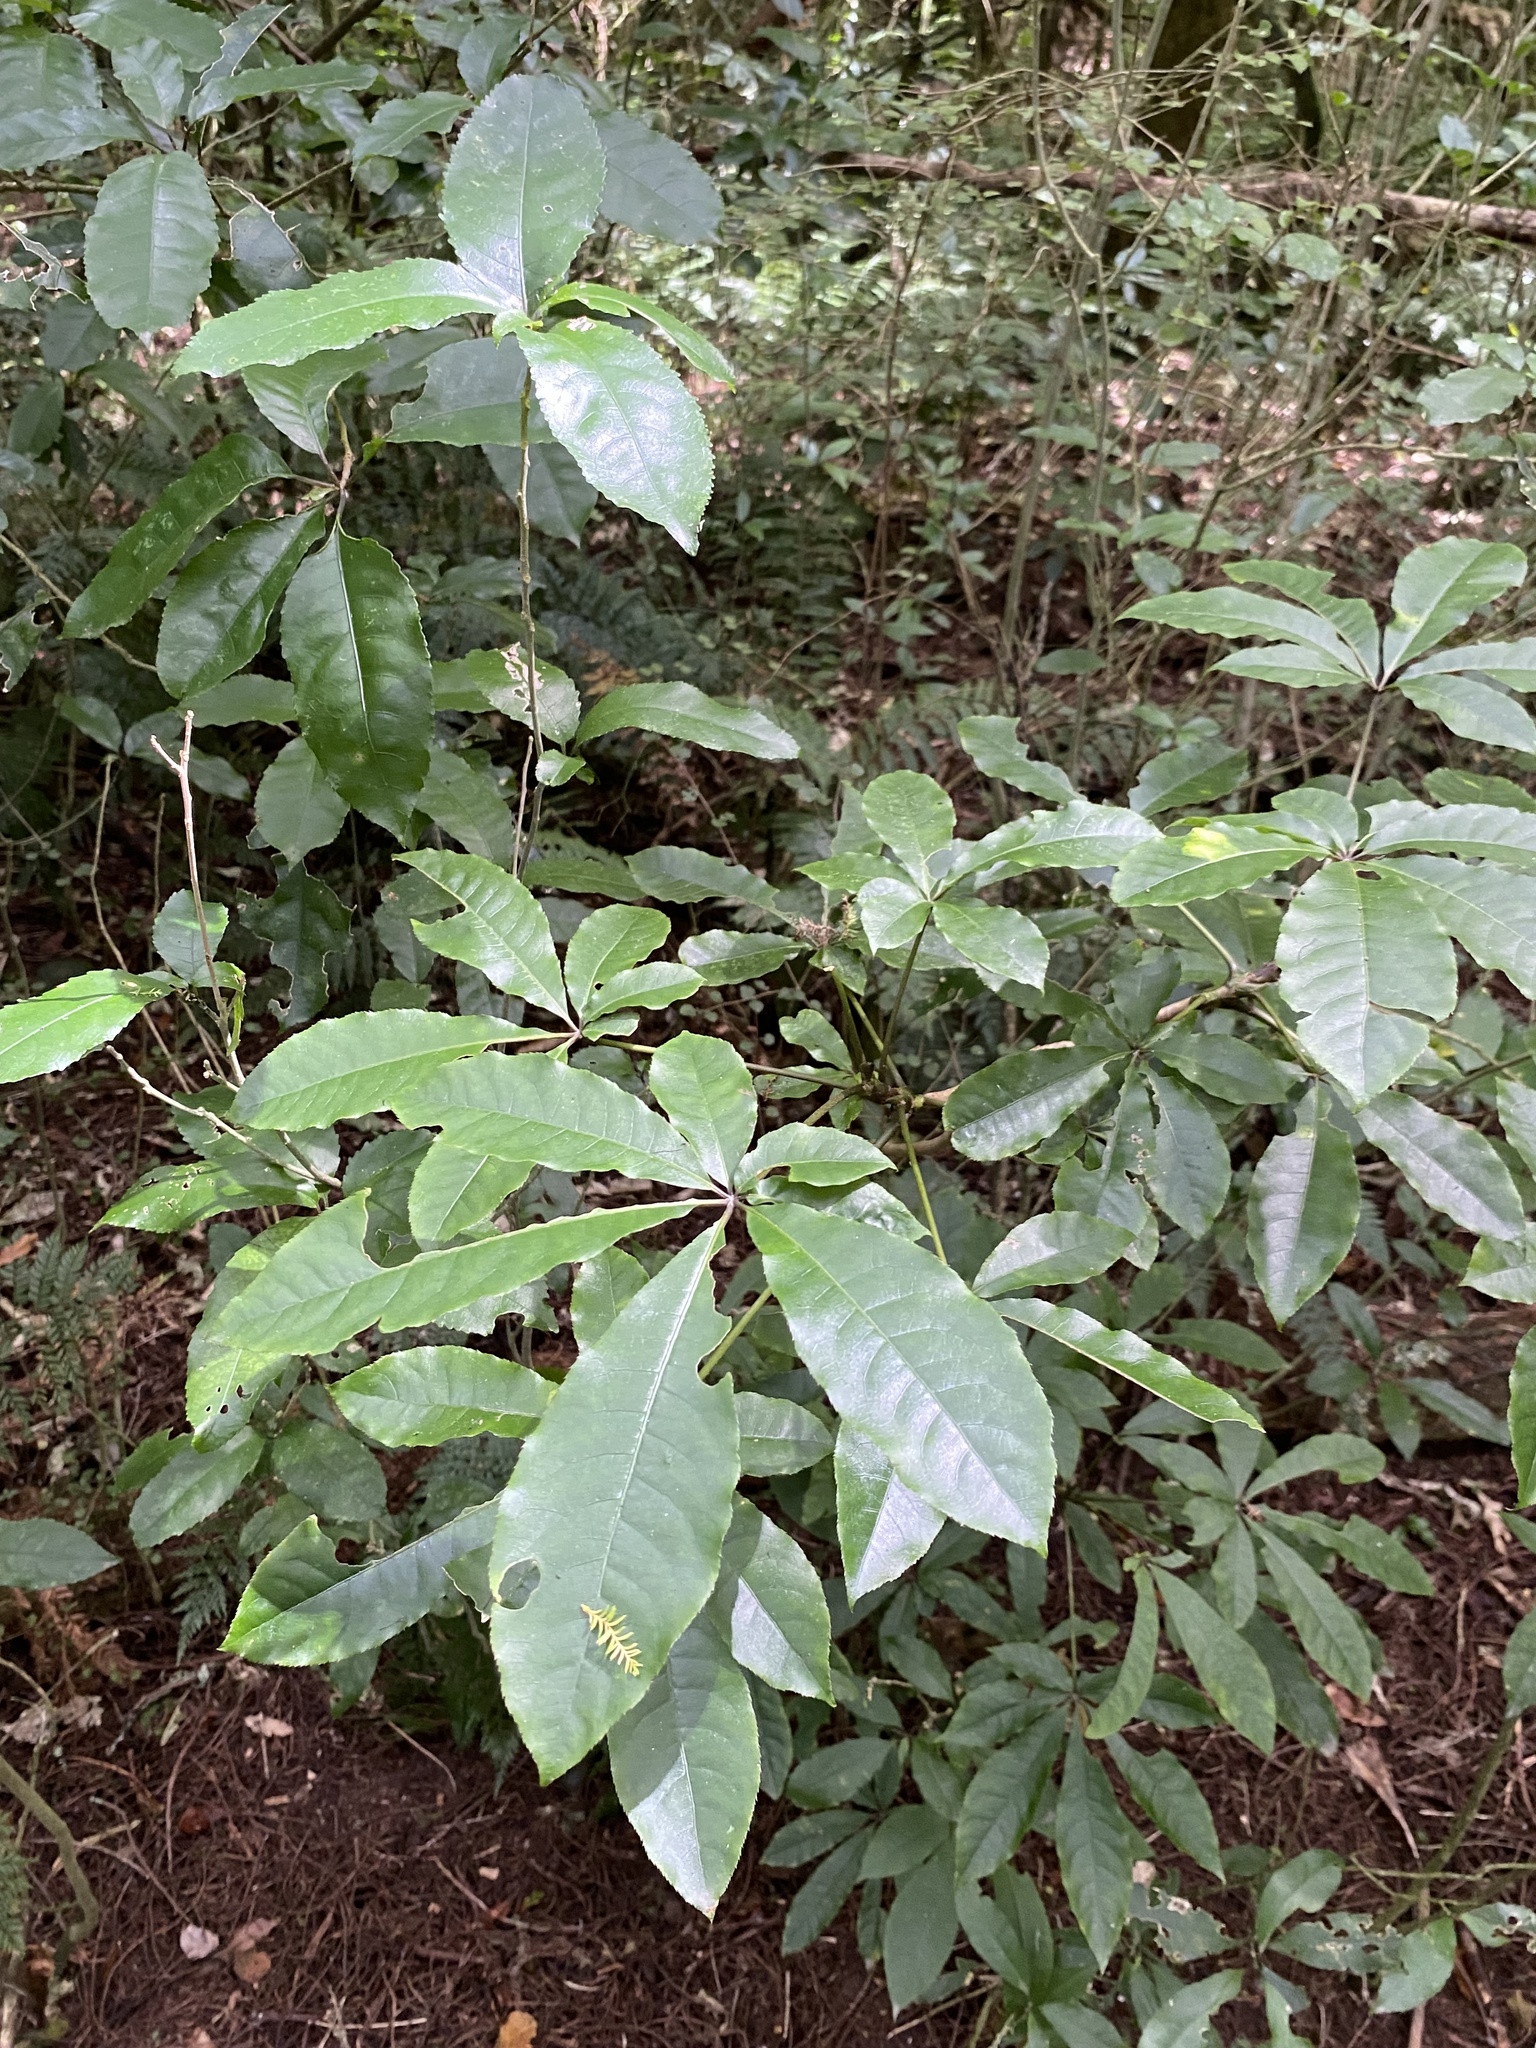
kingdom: Plantae
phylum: Tracheophyta
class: Magnoliopsida
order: Apiales
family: Araliaceae
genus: Schefflera
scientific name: Schefflera digitata
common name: Pate
